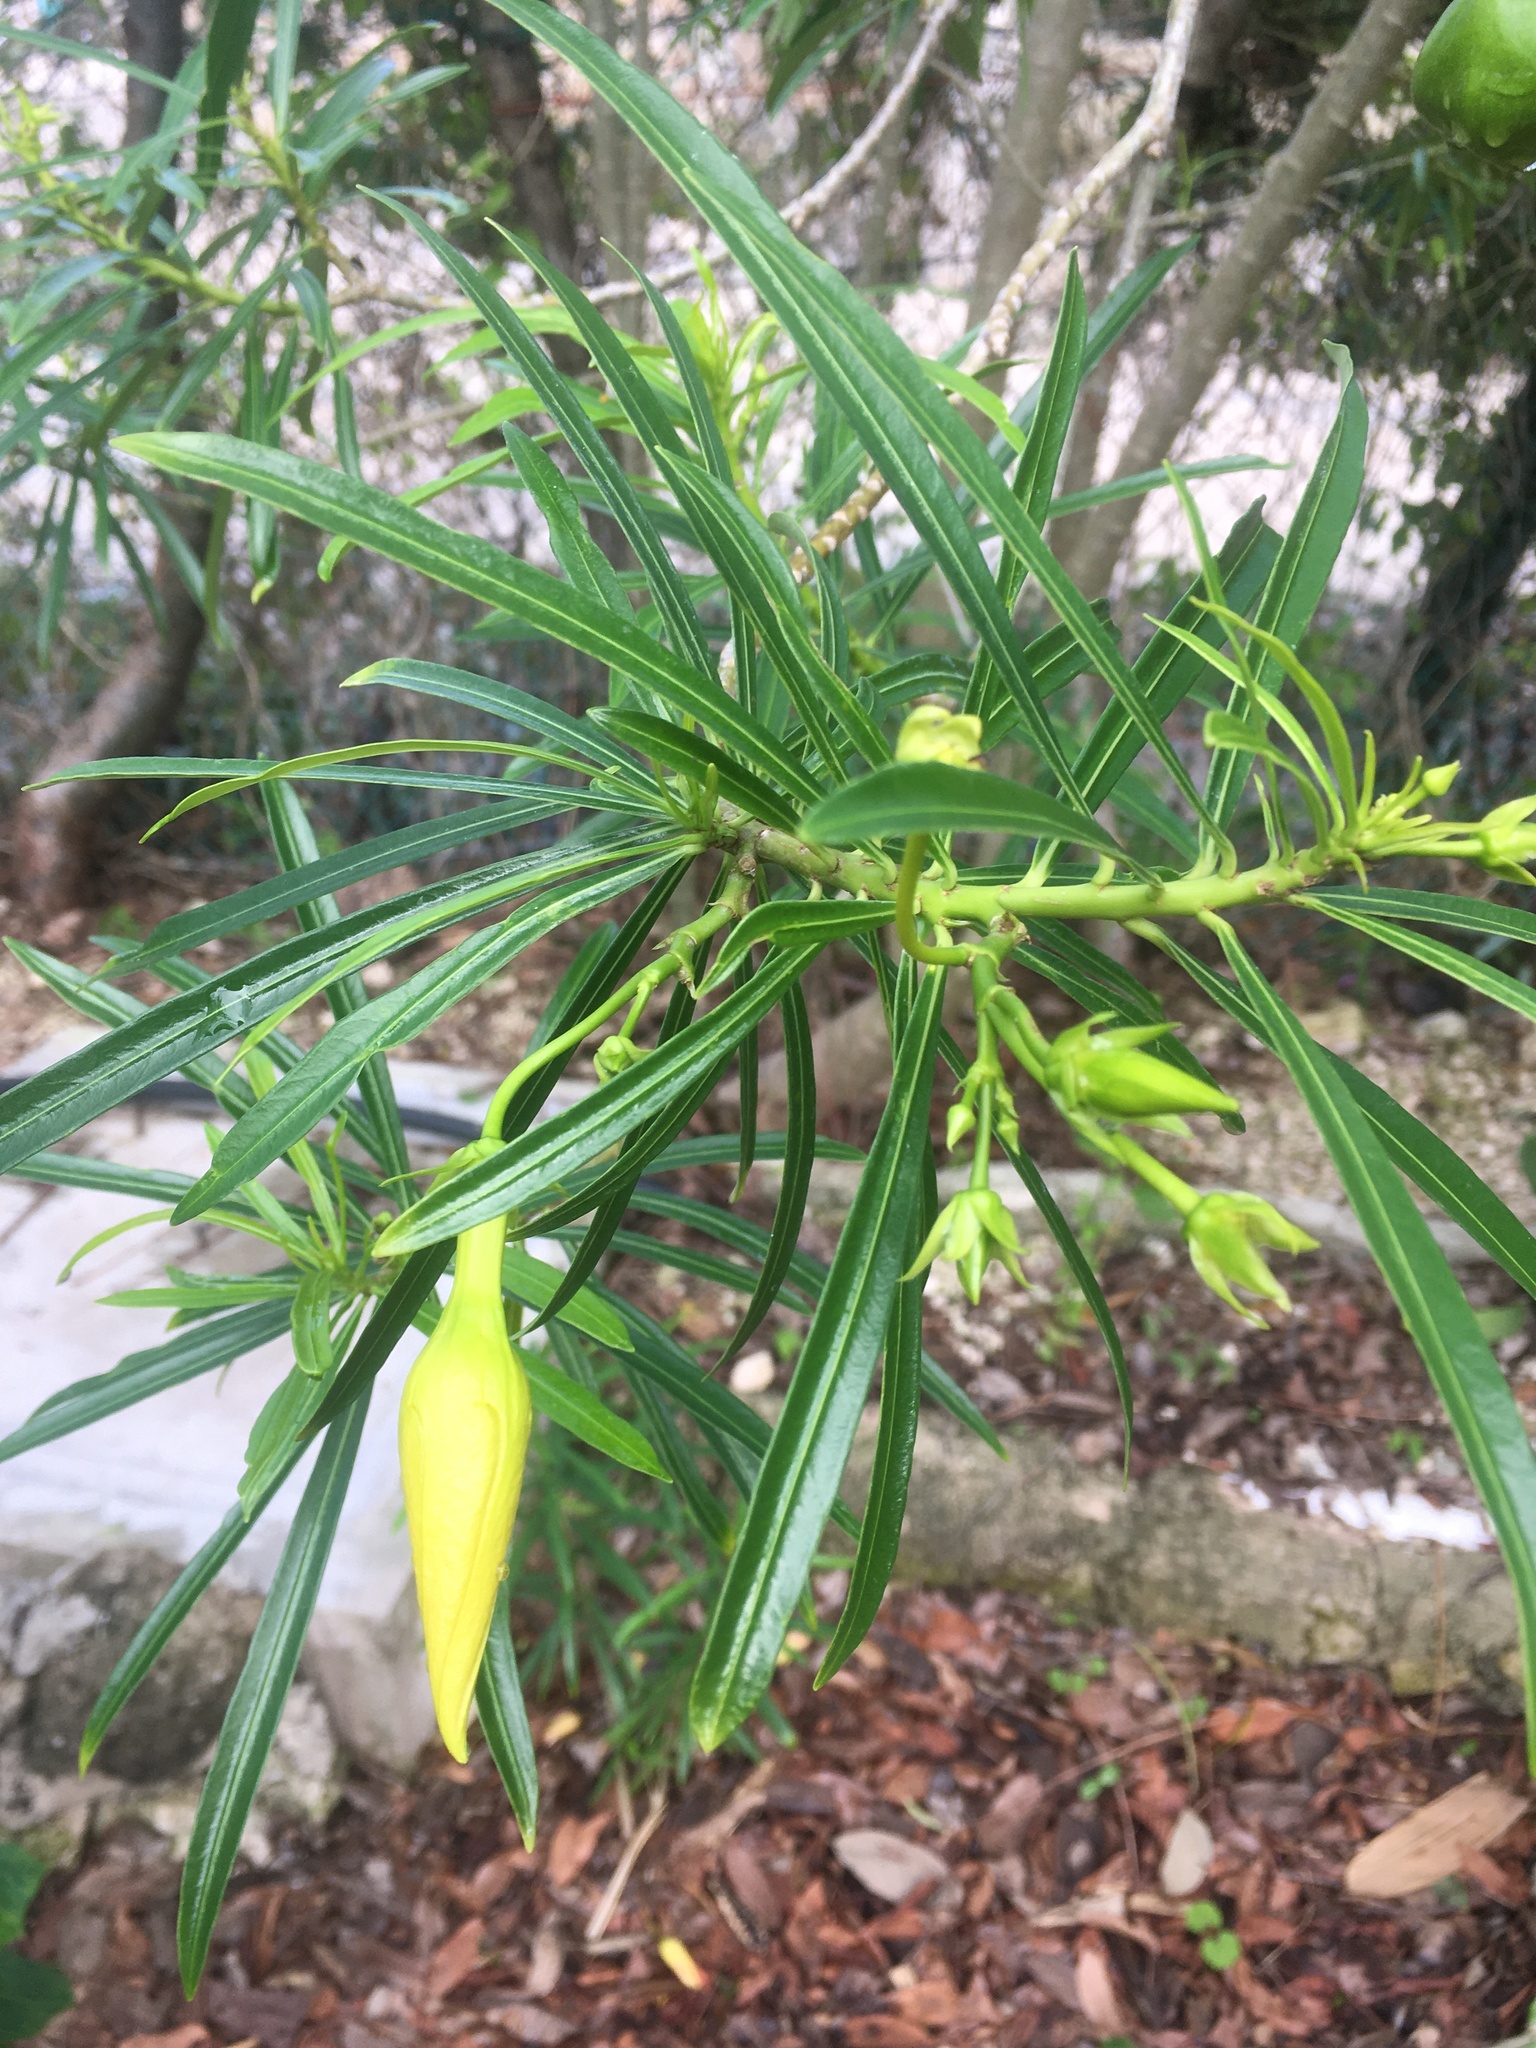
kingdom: Plantae
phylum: Tracheophyta
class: Magnoliopsida
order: Gentianales
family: Apocynaceae
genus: Cascabela
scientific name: Cascabela thevetia
